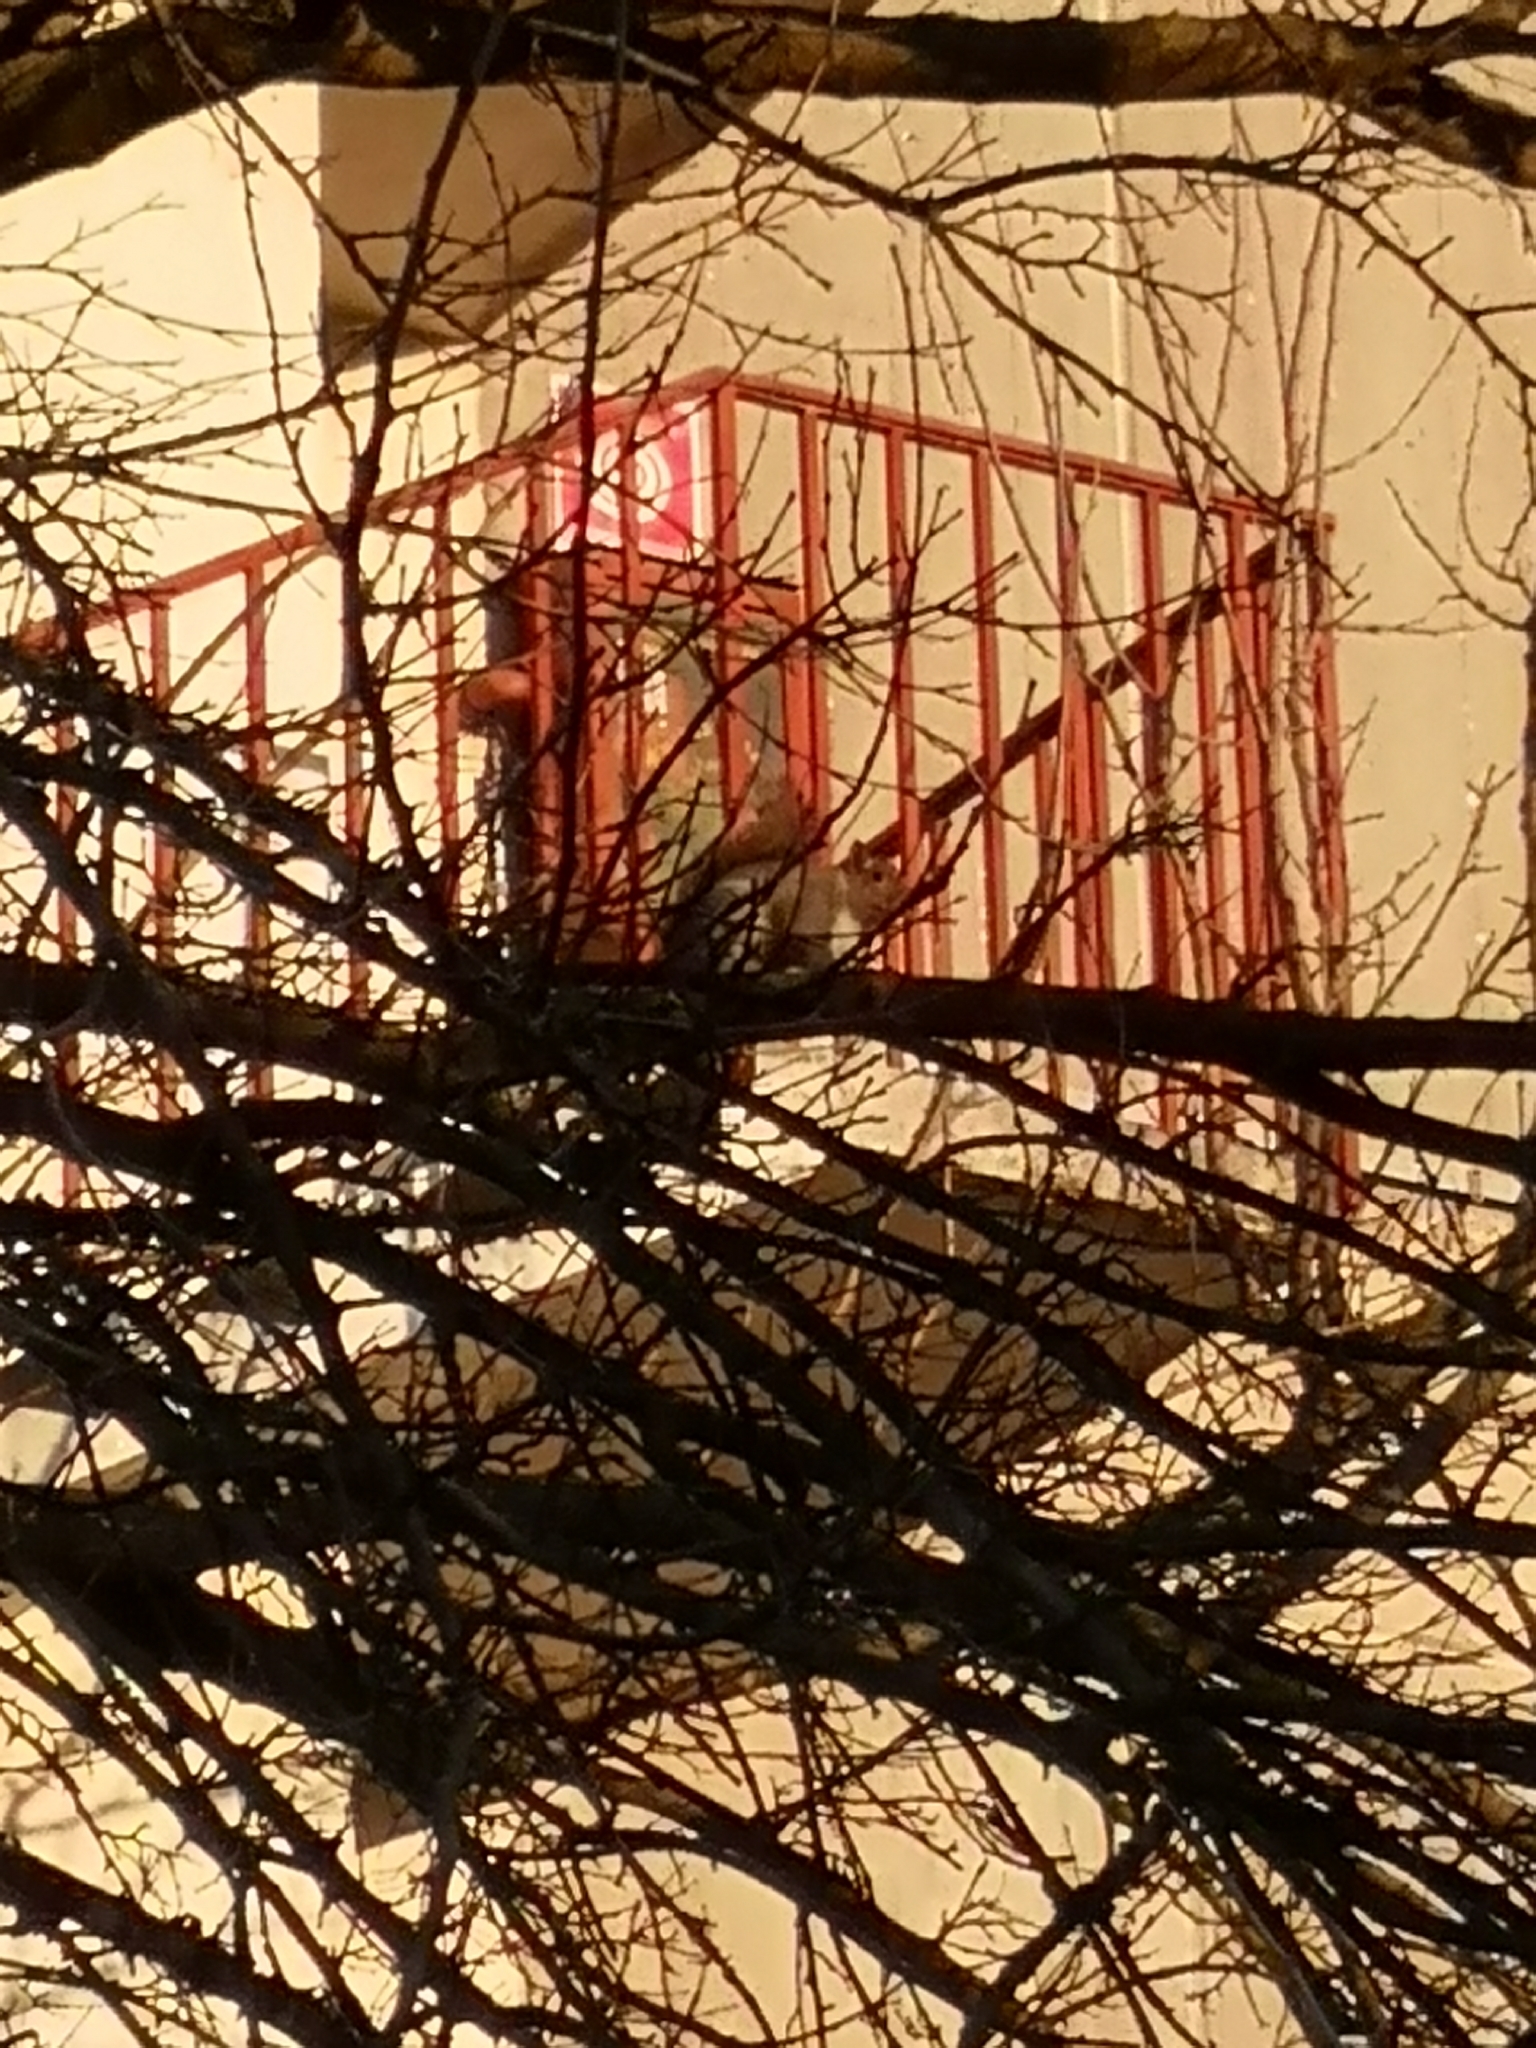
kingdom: Animalia
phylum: Chordata
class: Mammalia
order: Rodentia
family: Sciuridae
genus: Sciurus
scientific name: Sciurus carolinensis
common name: Eastern gray squirrel
